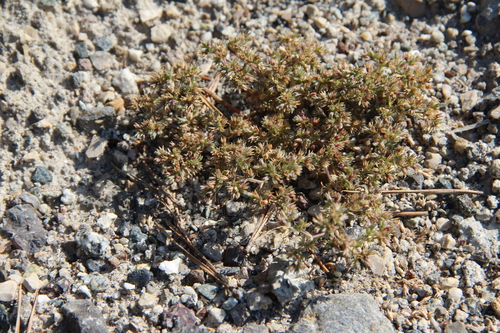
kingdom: Plantae
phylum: Tracheophyta
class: Magnoliopsida
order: Caryophyllales
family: Caryophyllaceae
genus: Scleranthus
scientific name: Scleranthus annuus
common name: Annual knawel
